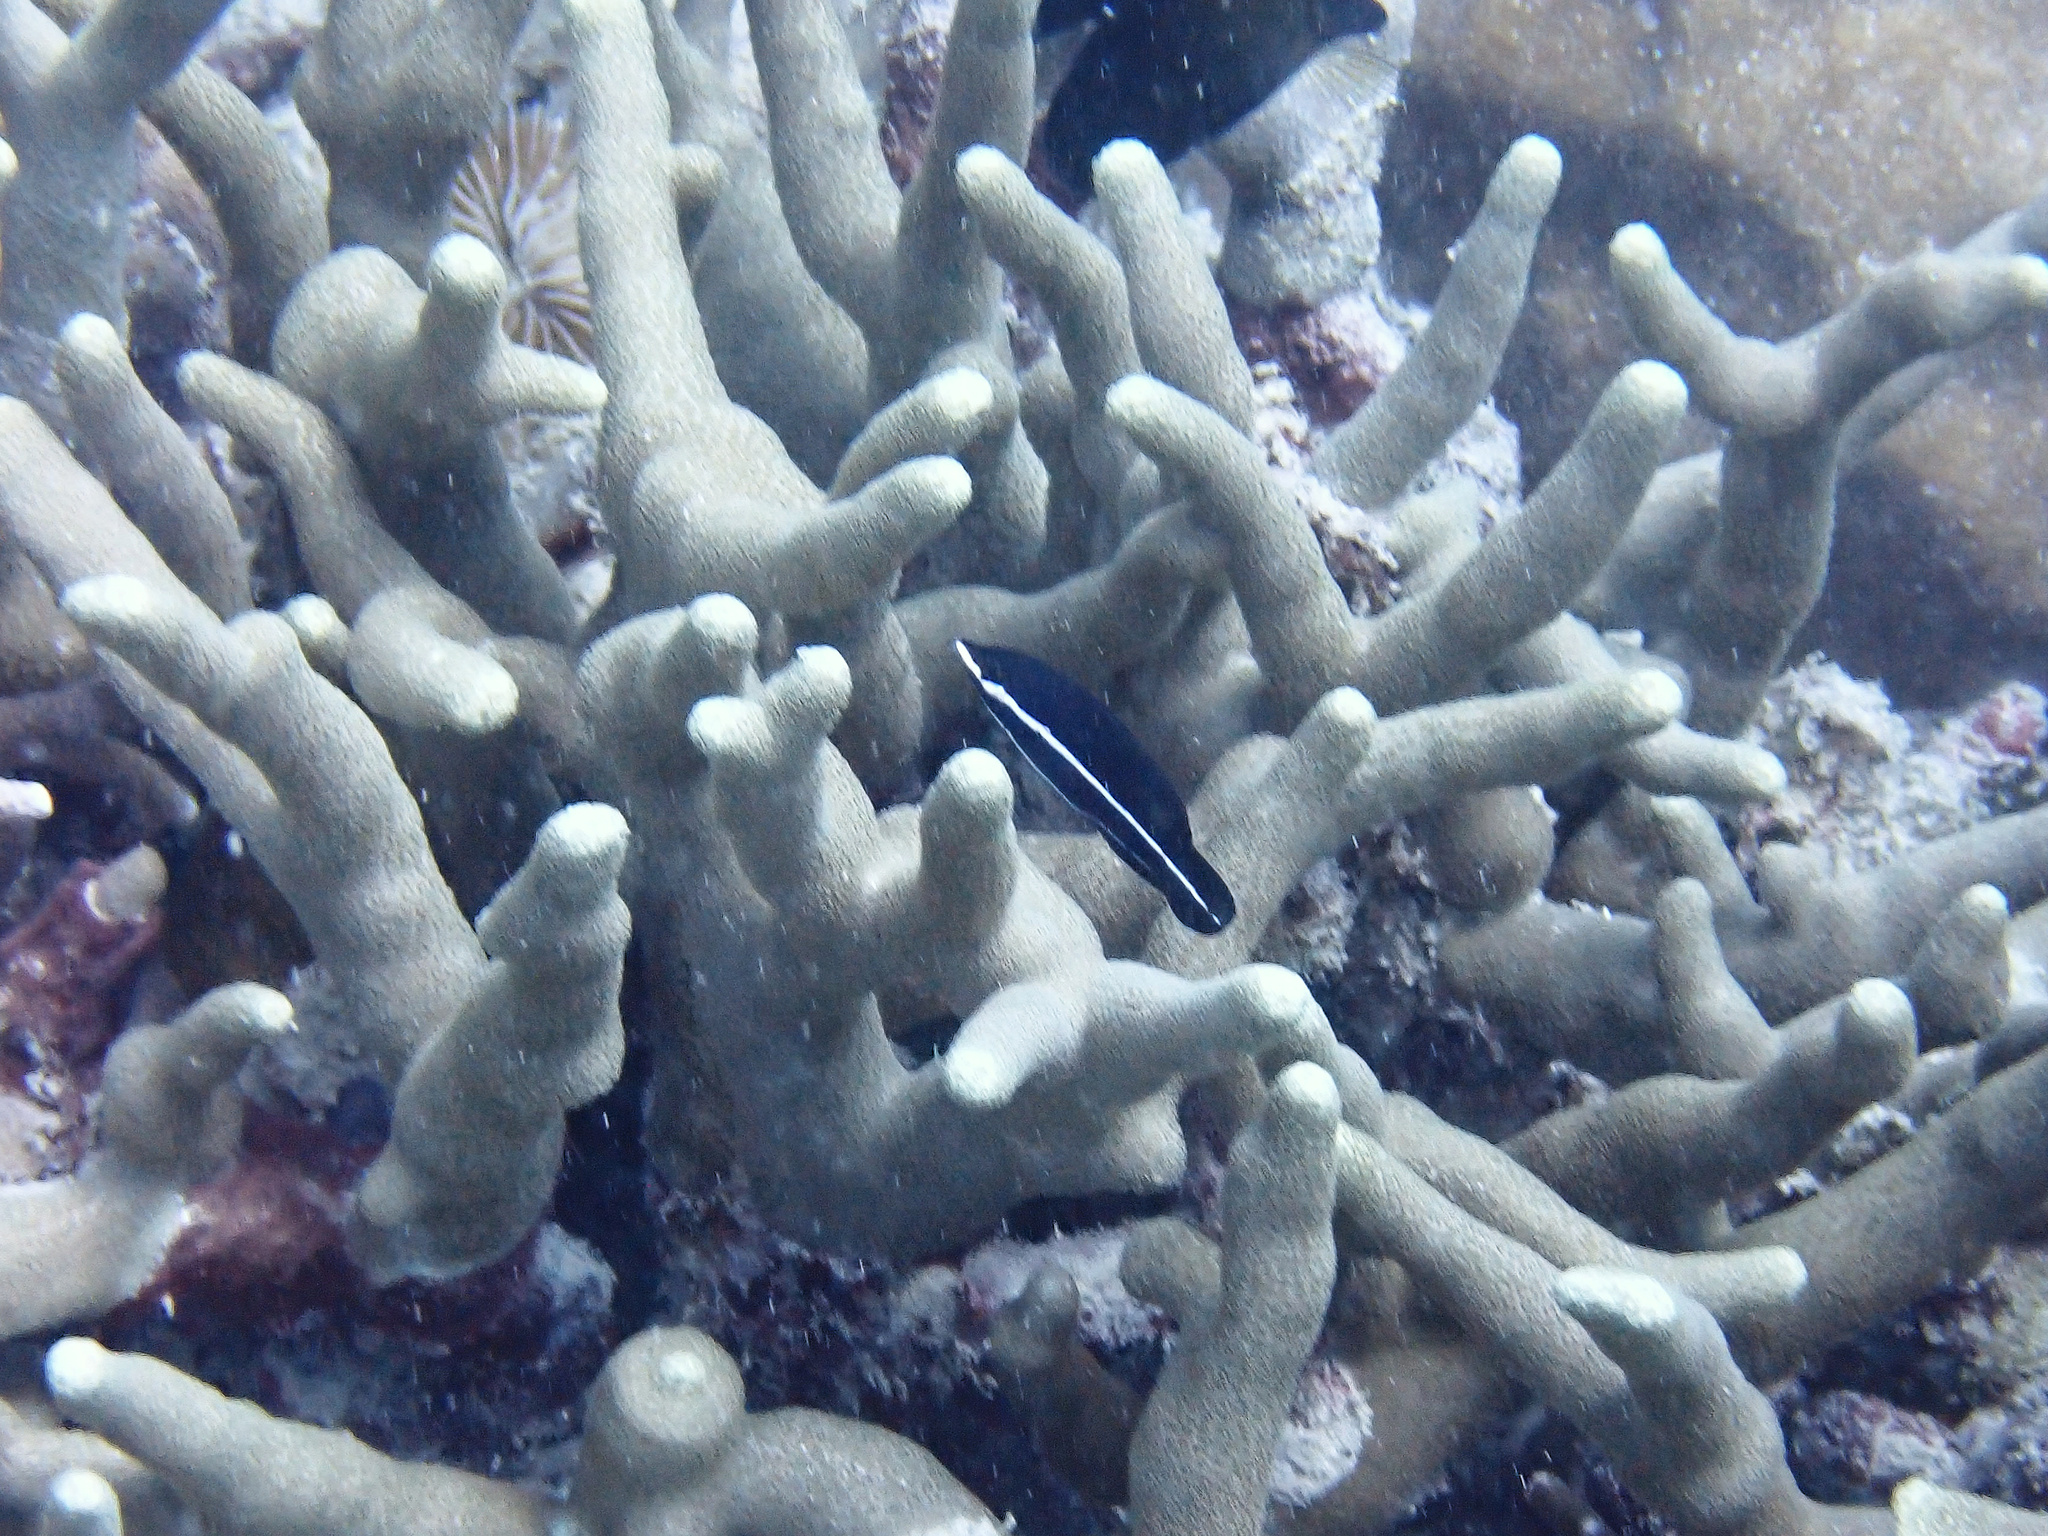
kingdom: Animalia
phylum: Chordata
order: Perciformes
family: Labridae
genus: Labrichthys
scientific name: Labrichthys unilineatus
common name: Onelined wrasse
